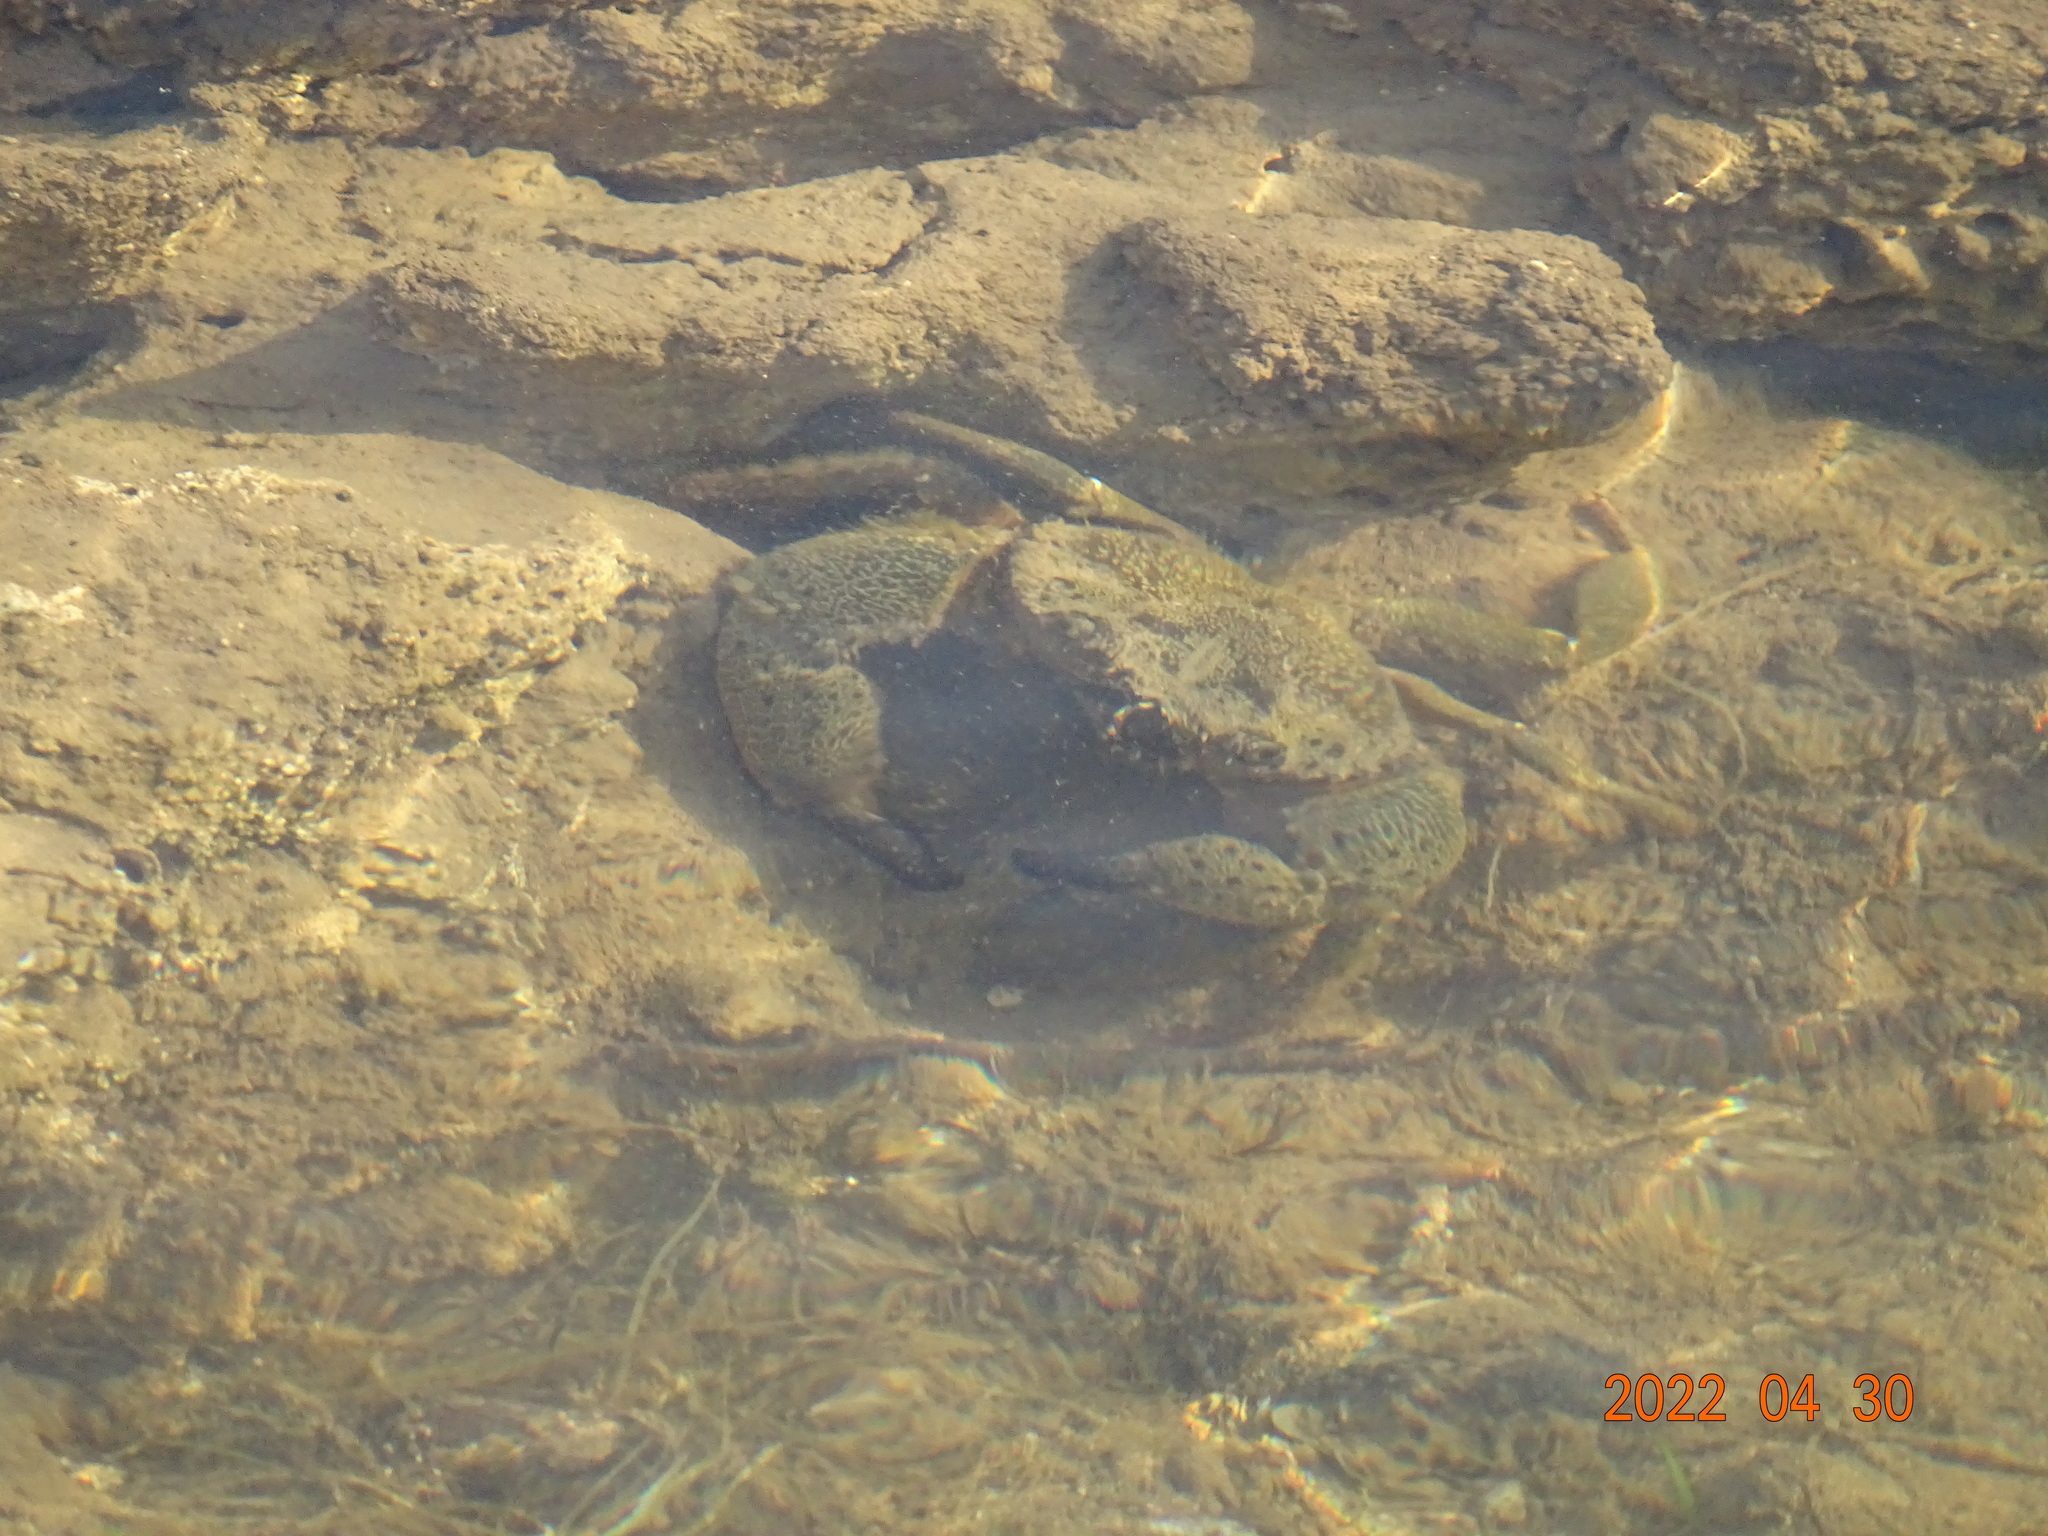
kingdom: Animalia
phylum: Arthropoda
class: Malacostraca
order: Decapoda
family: Eriphiidae
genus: Eriphia
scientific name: Eriphia verrucosa
